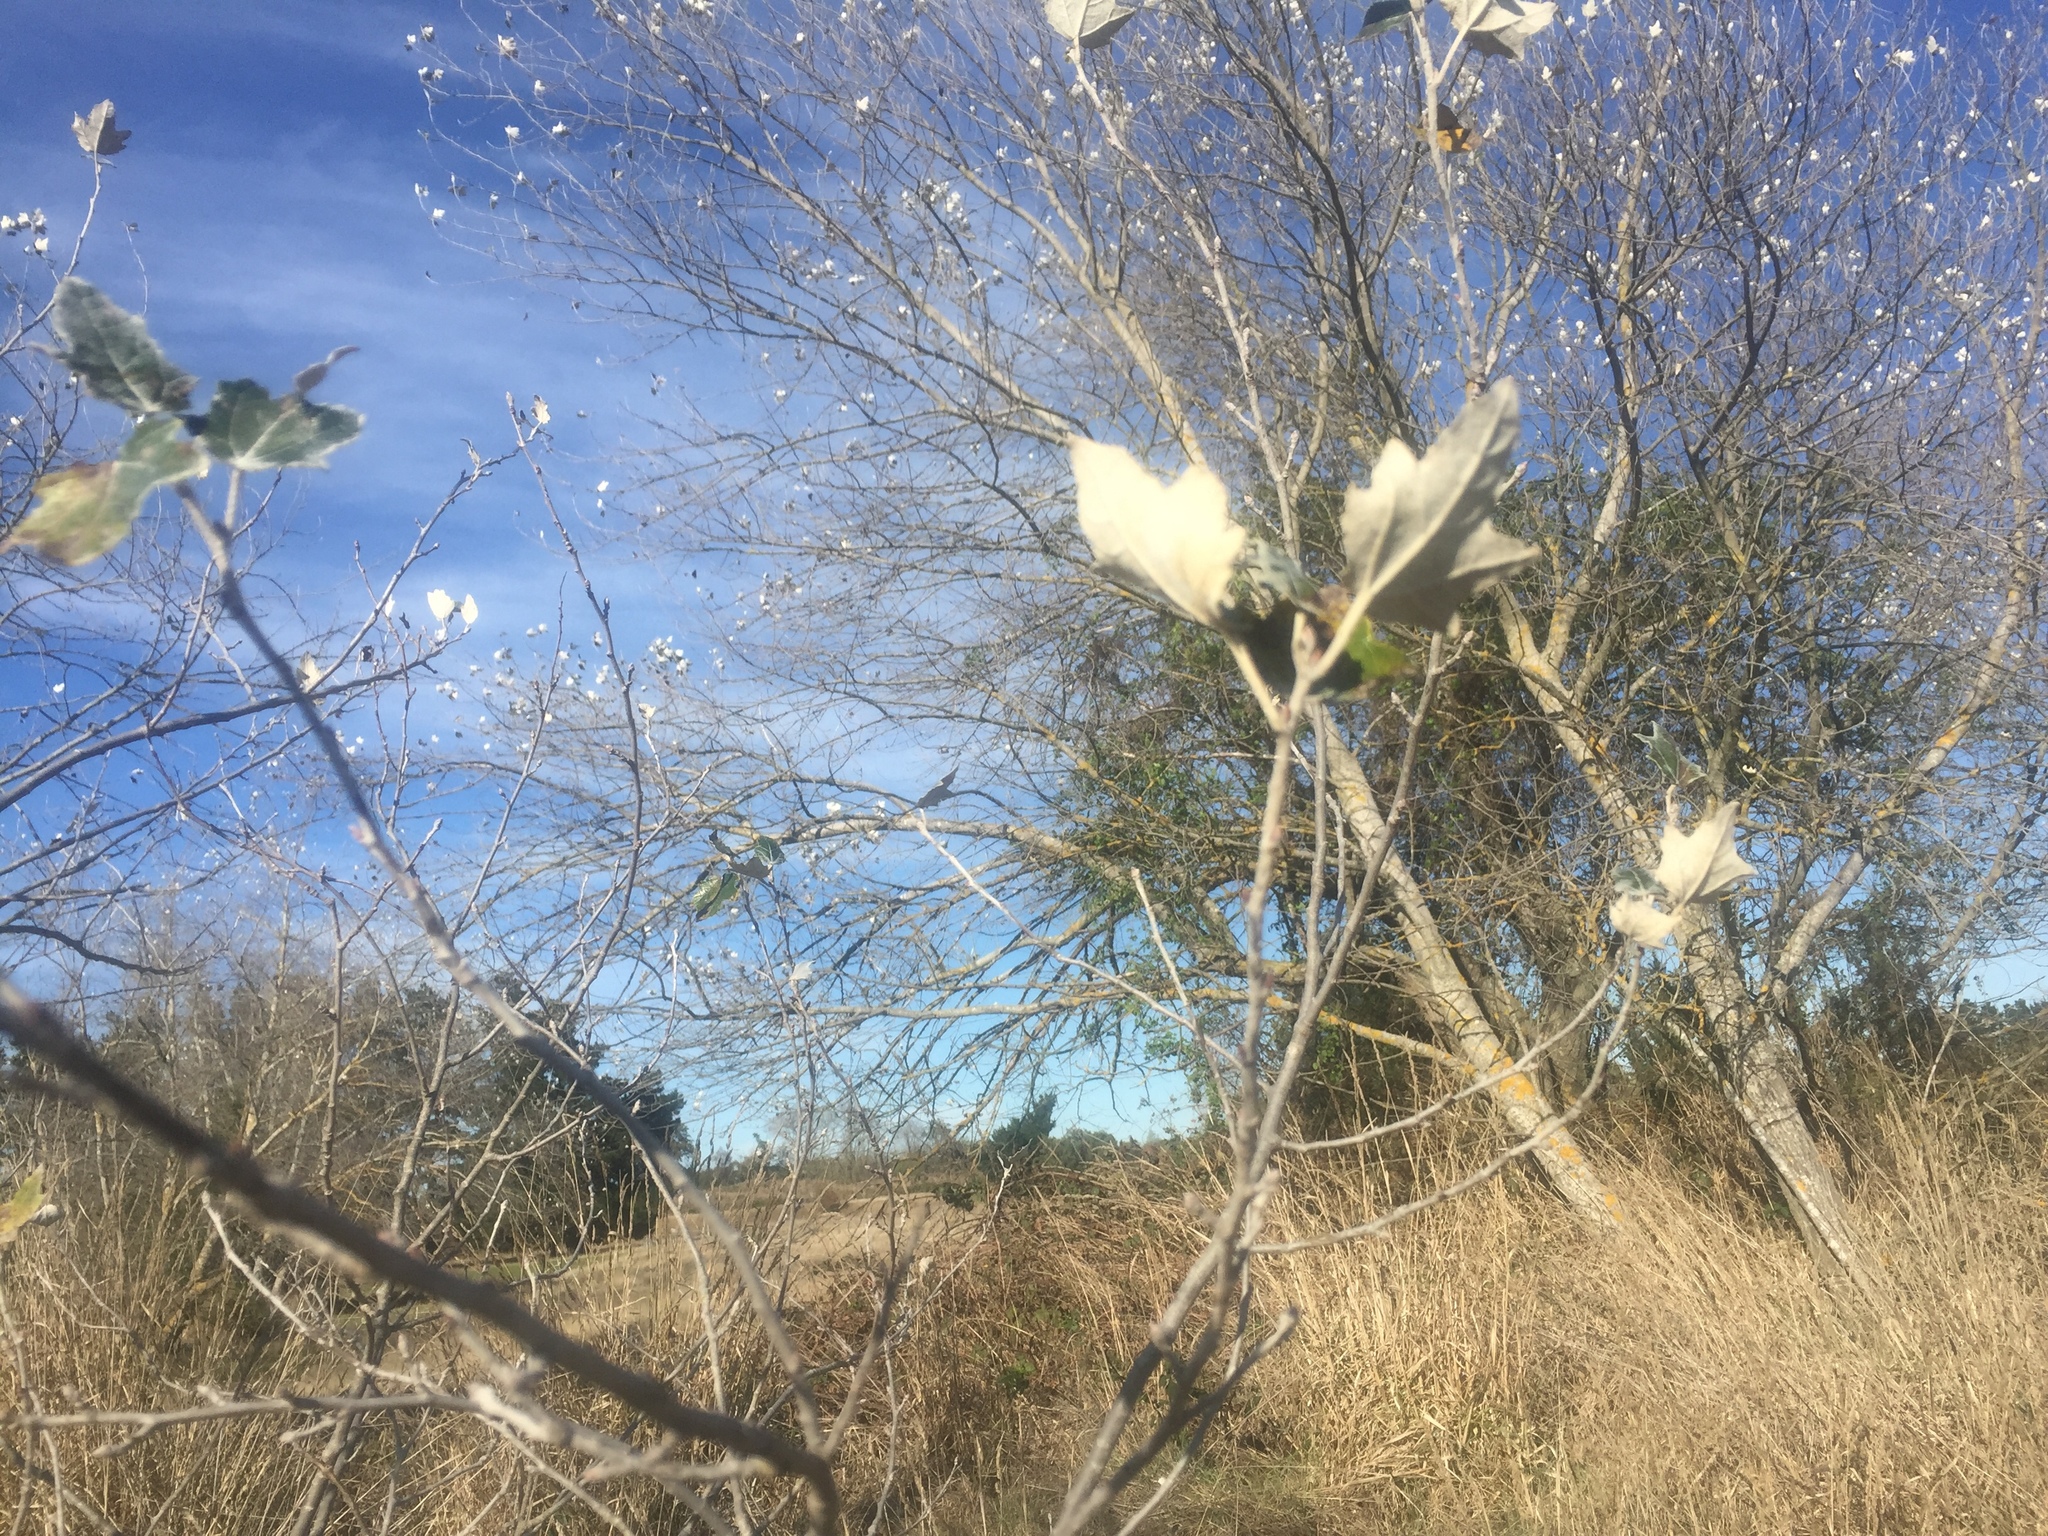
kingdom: Plantae
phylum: Tracheophyta
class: Magnoliopsida
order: Malpighiales
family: Salicaceae
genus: Populus
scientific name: Populus alba
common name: White poplar
